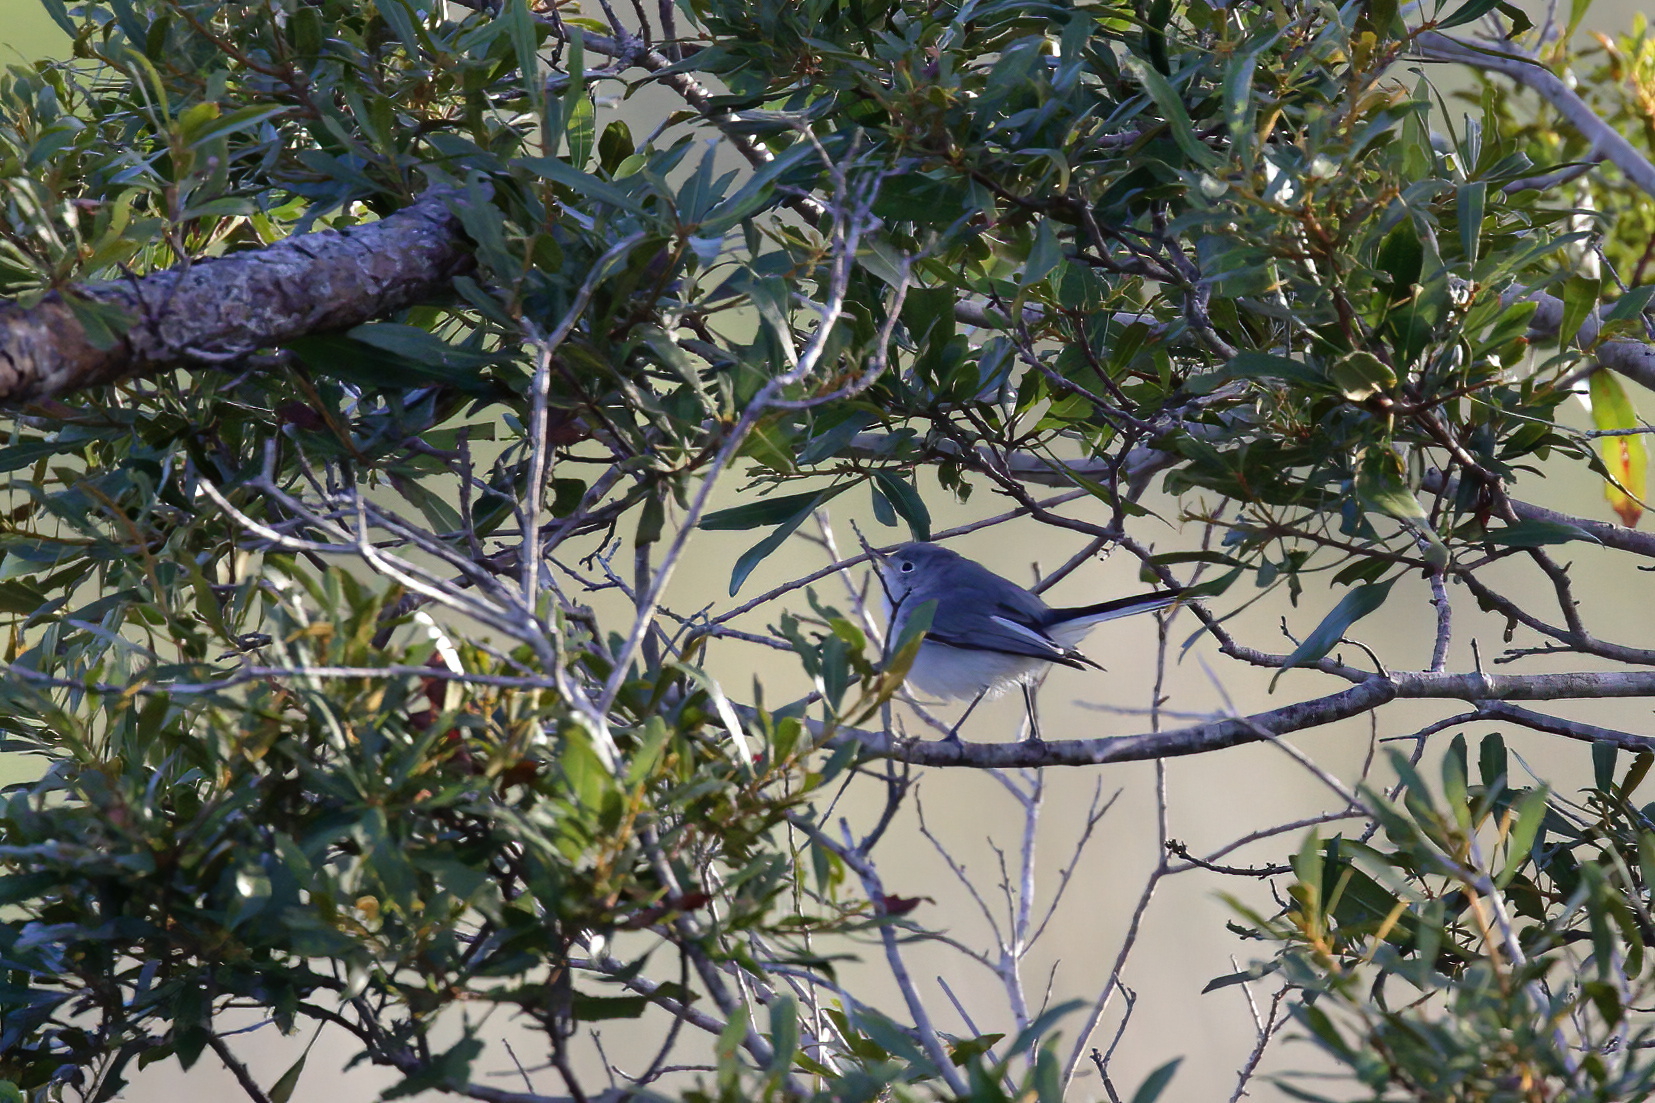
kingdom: Animalia
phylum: Chordata
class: Aves
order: Passeriformes
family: Polioptilidae
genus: Polioptila
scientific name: Polioptila caerulea
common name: Blue-gray gnatcatcher
